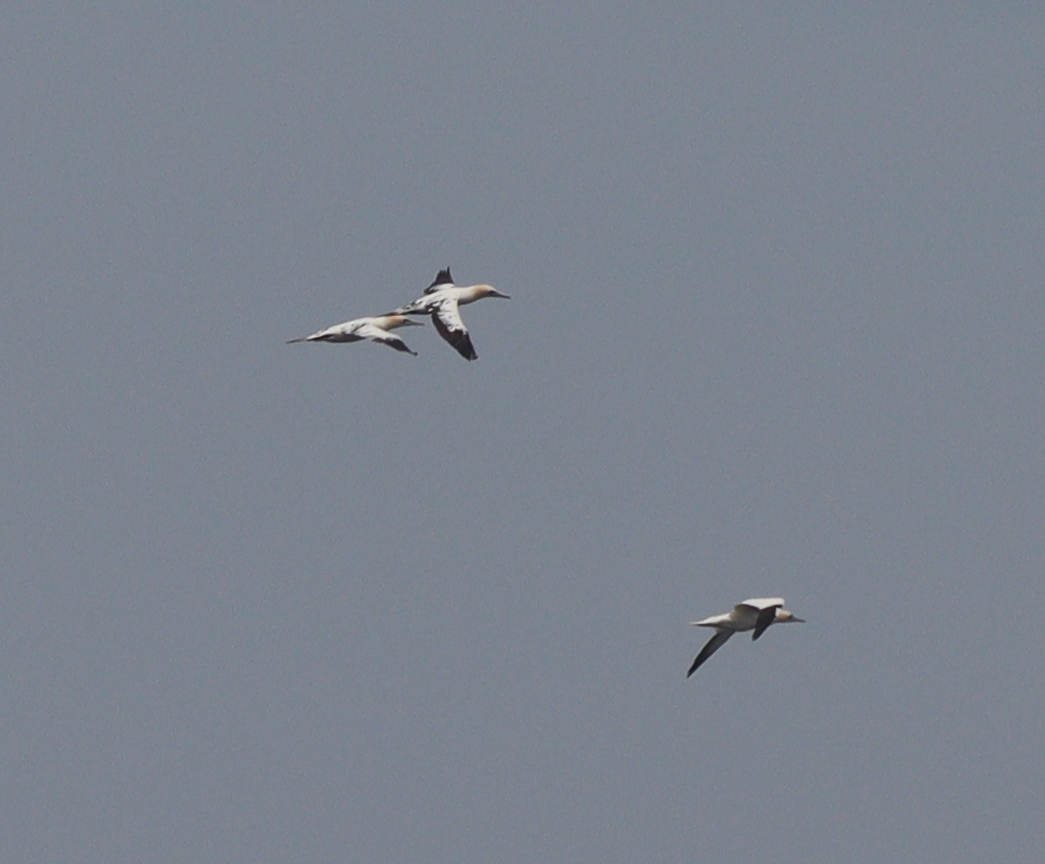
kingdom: Animalia
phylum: Chordata
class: Aves
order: Suliformes
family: Sulidae
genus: Morus
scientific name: Morus bassanus
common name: Northern gannet
